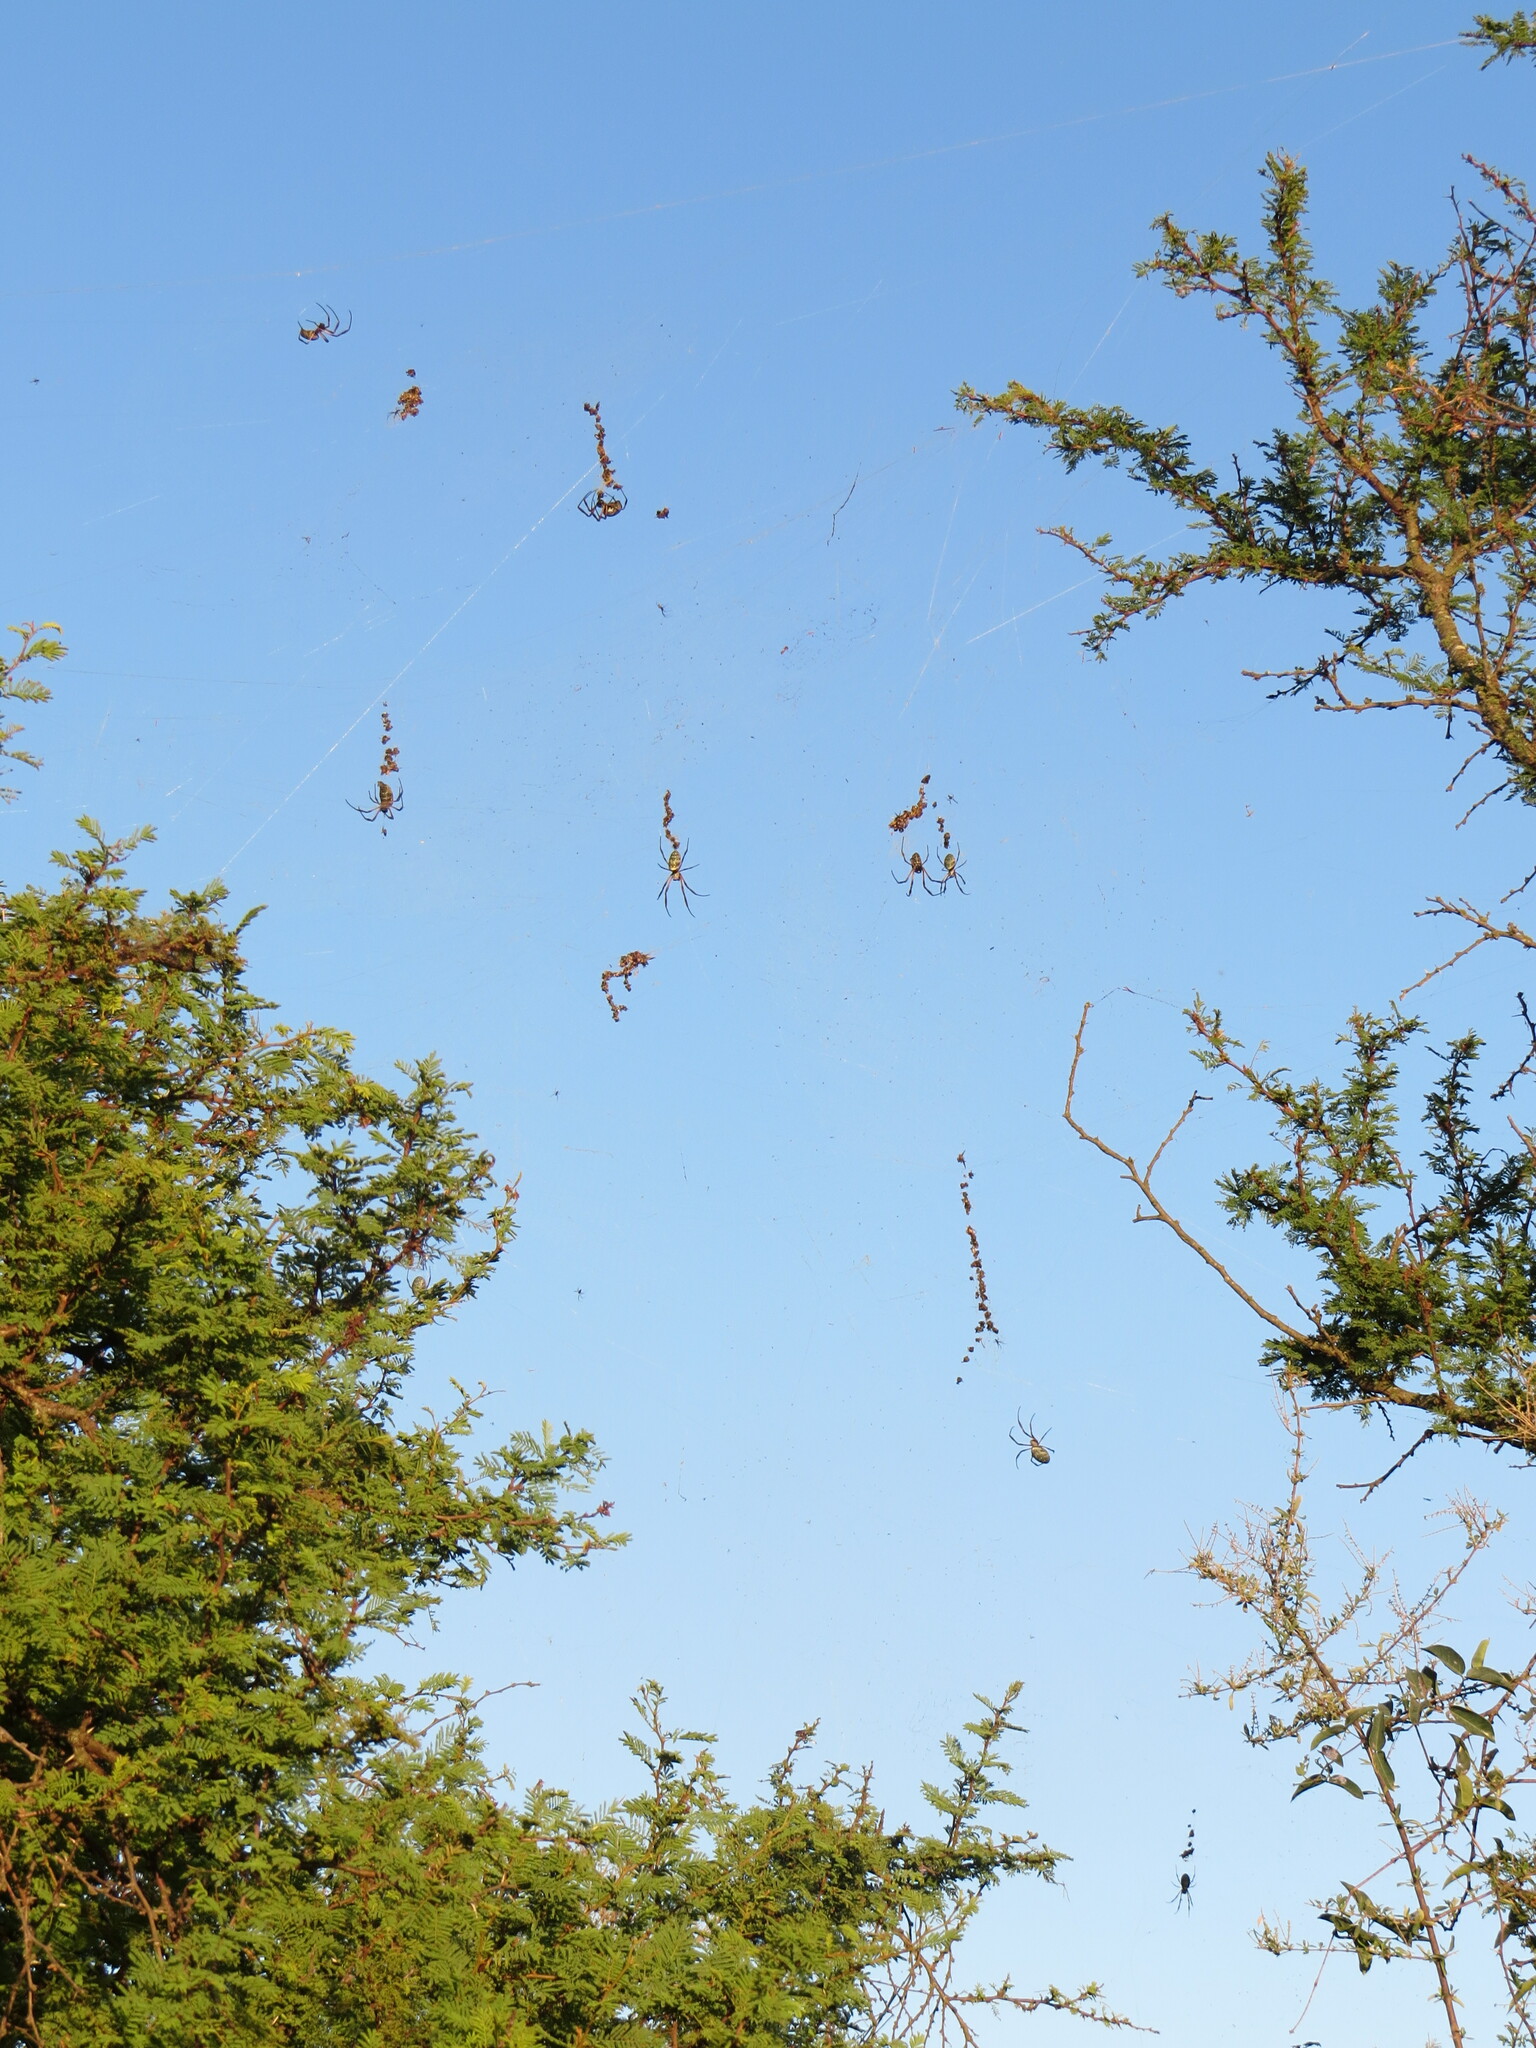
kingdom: Animalia
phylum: Arthropoda
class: Arachnida
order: Araneae
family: Araneidae
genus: Trichonephila
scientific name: Trichonephila sexpunctata
